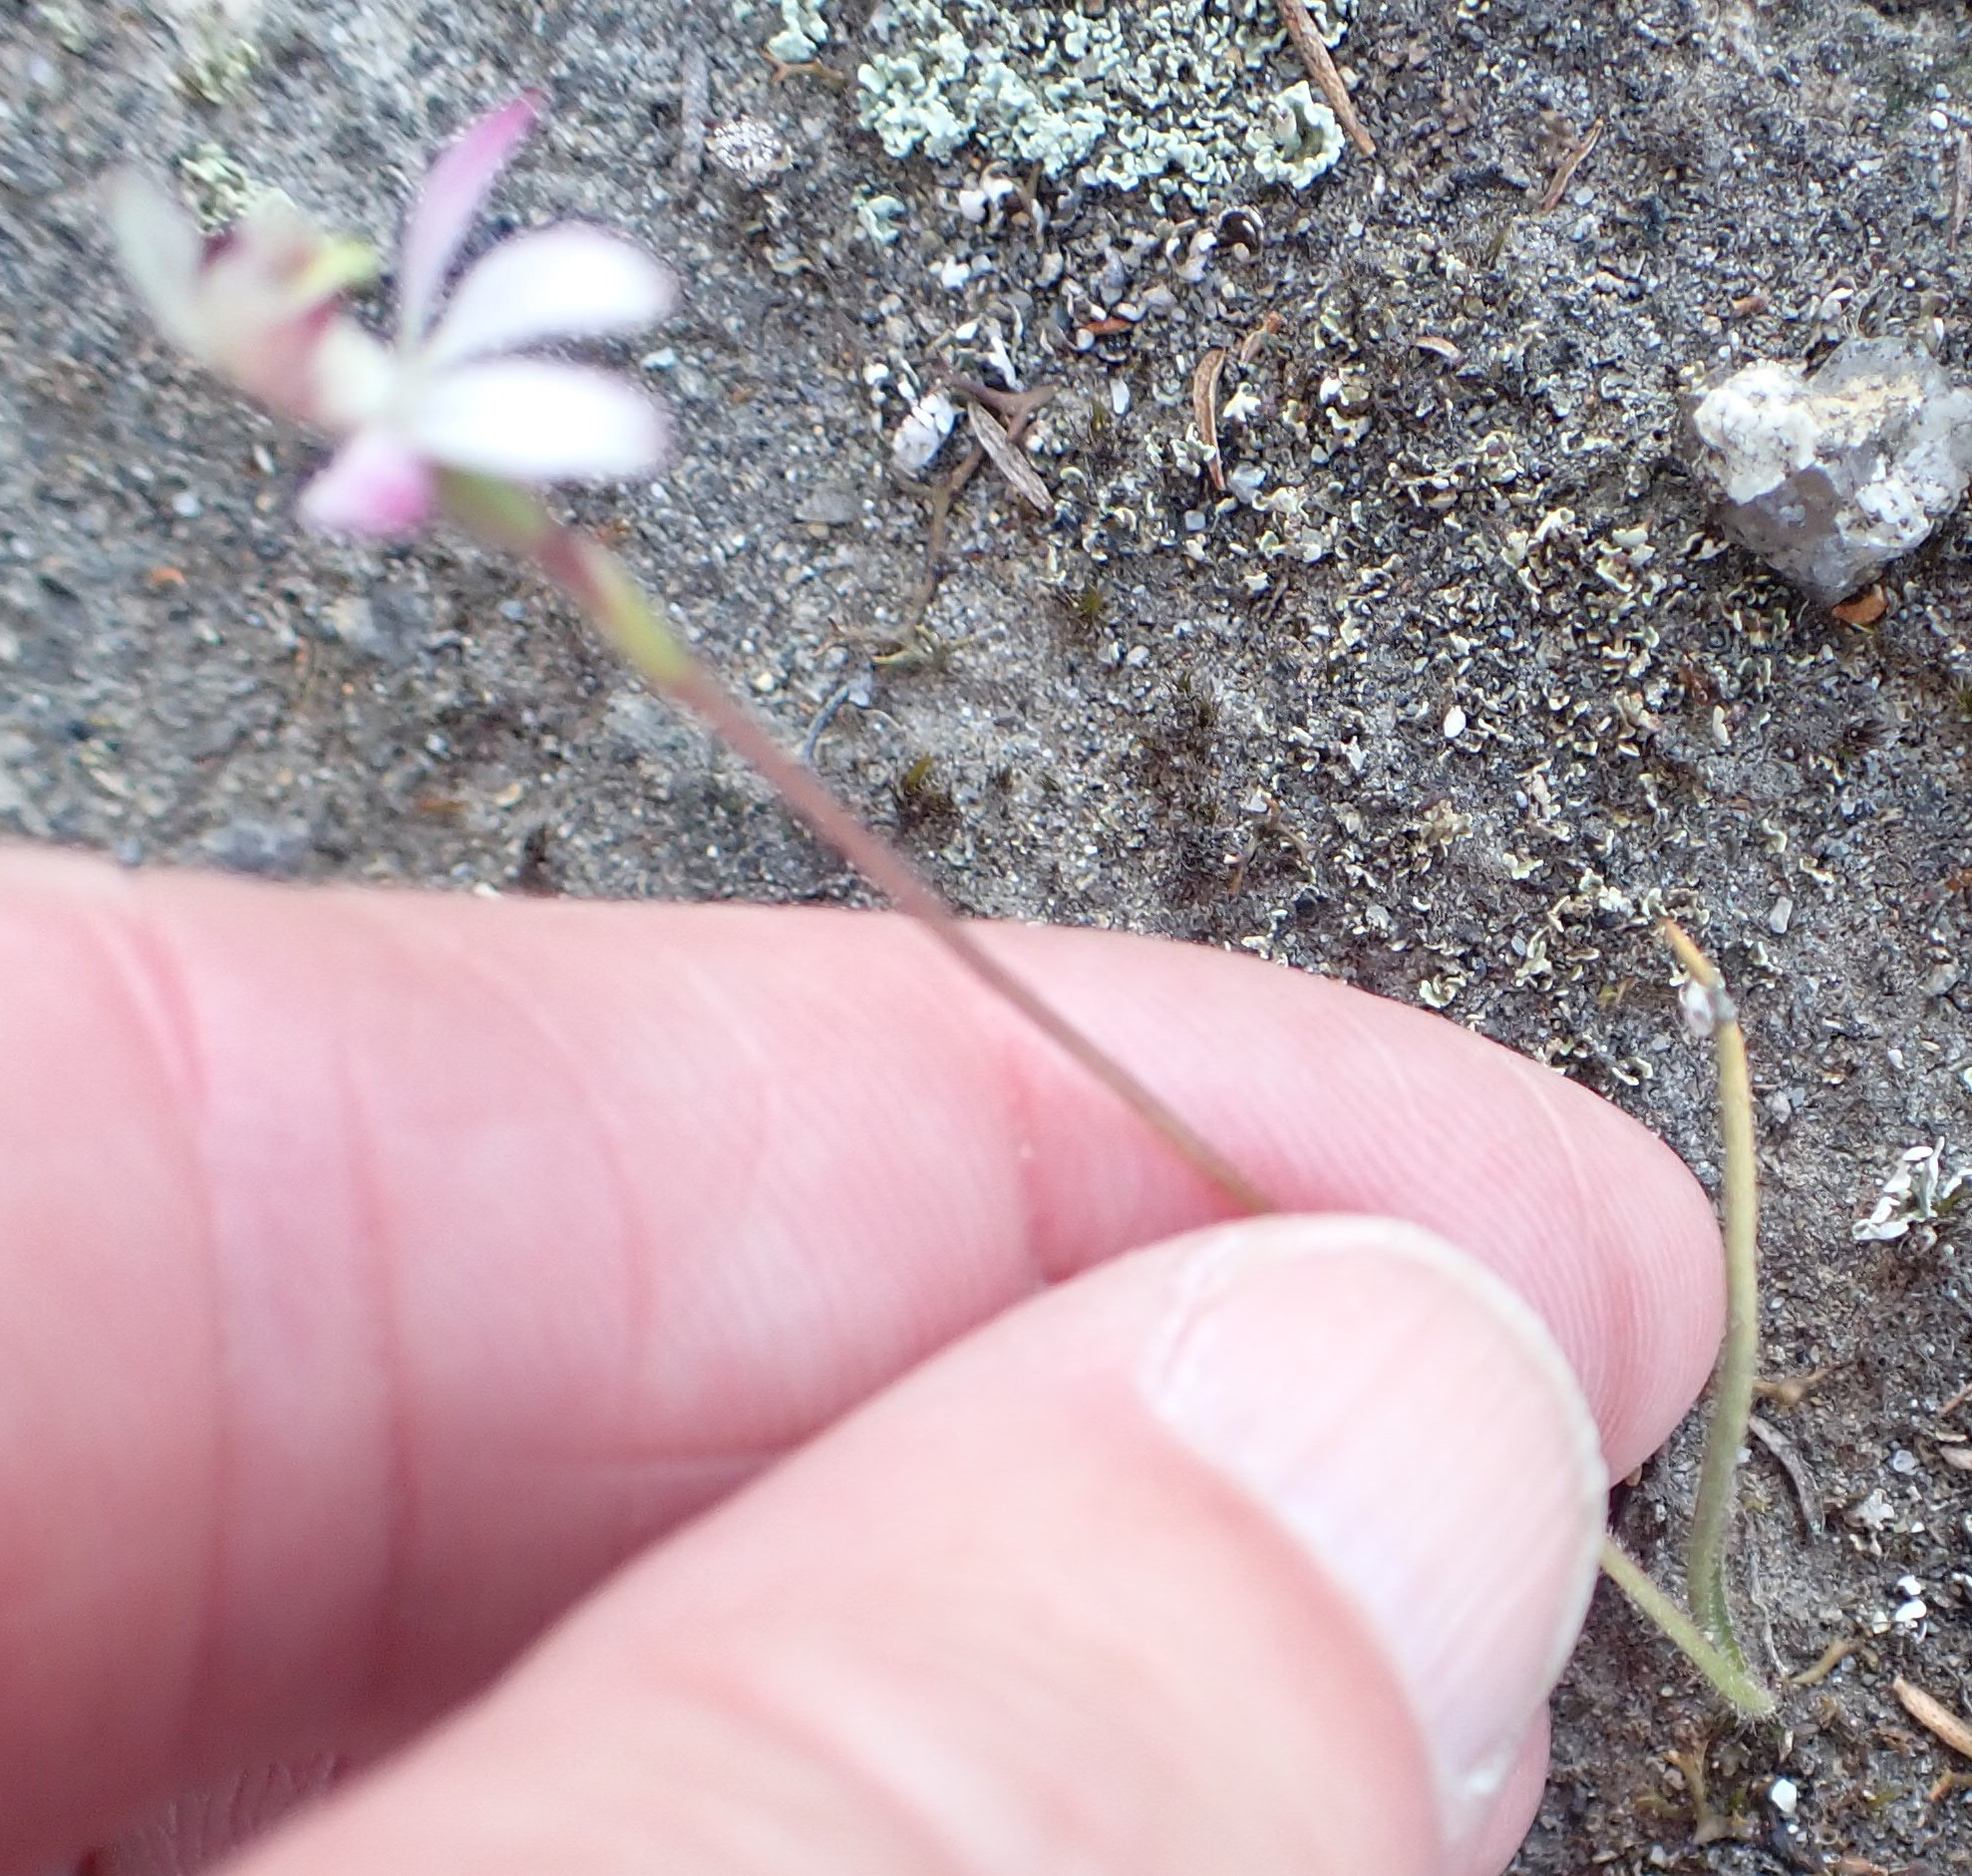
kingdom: Plantae
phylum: Tracheophyta
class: Liliopsida
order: Asparagales
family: Orchidaceae
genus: Caladenia
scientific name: Caladenia pusilla
